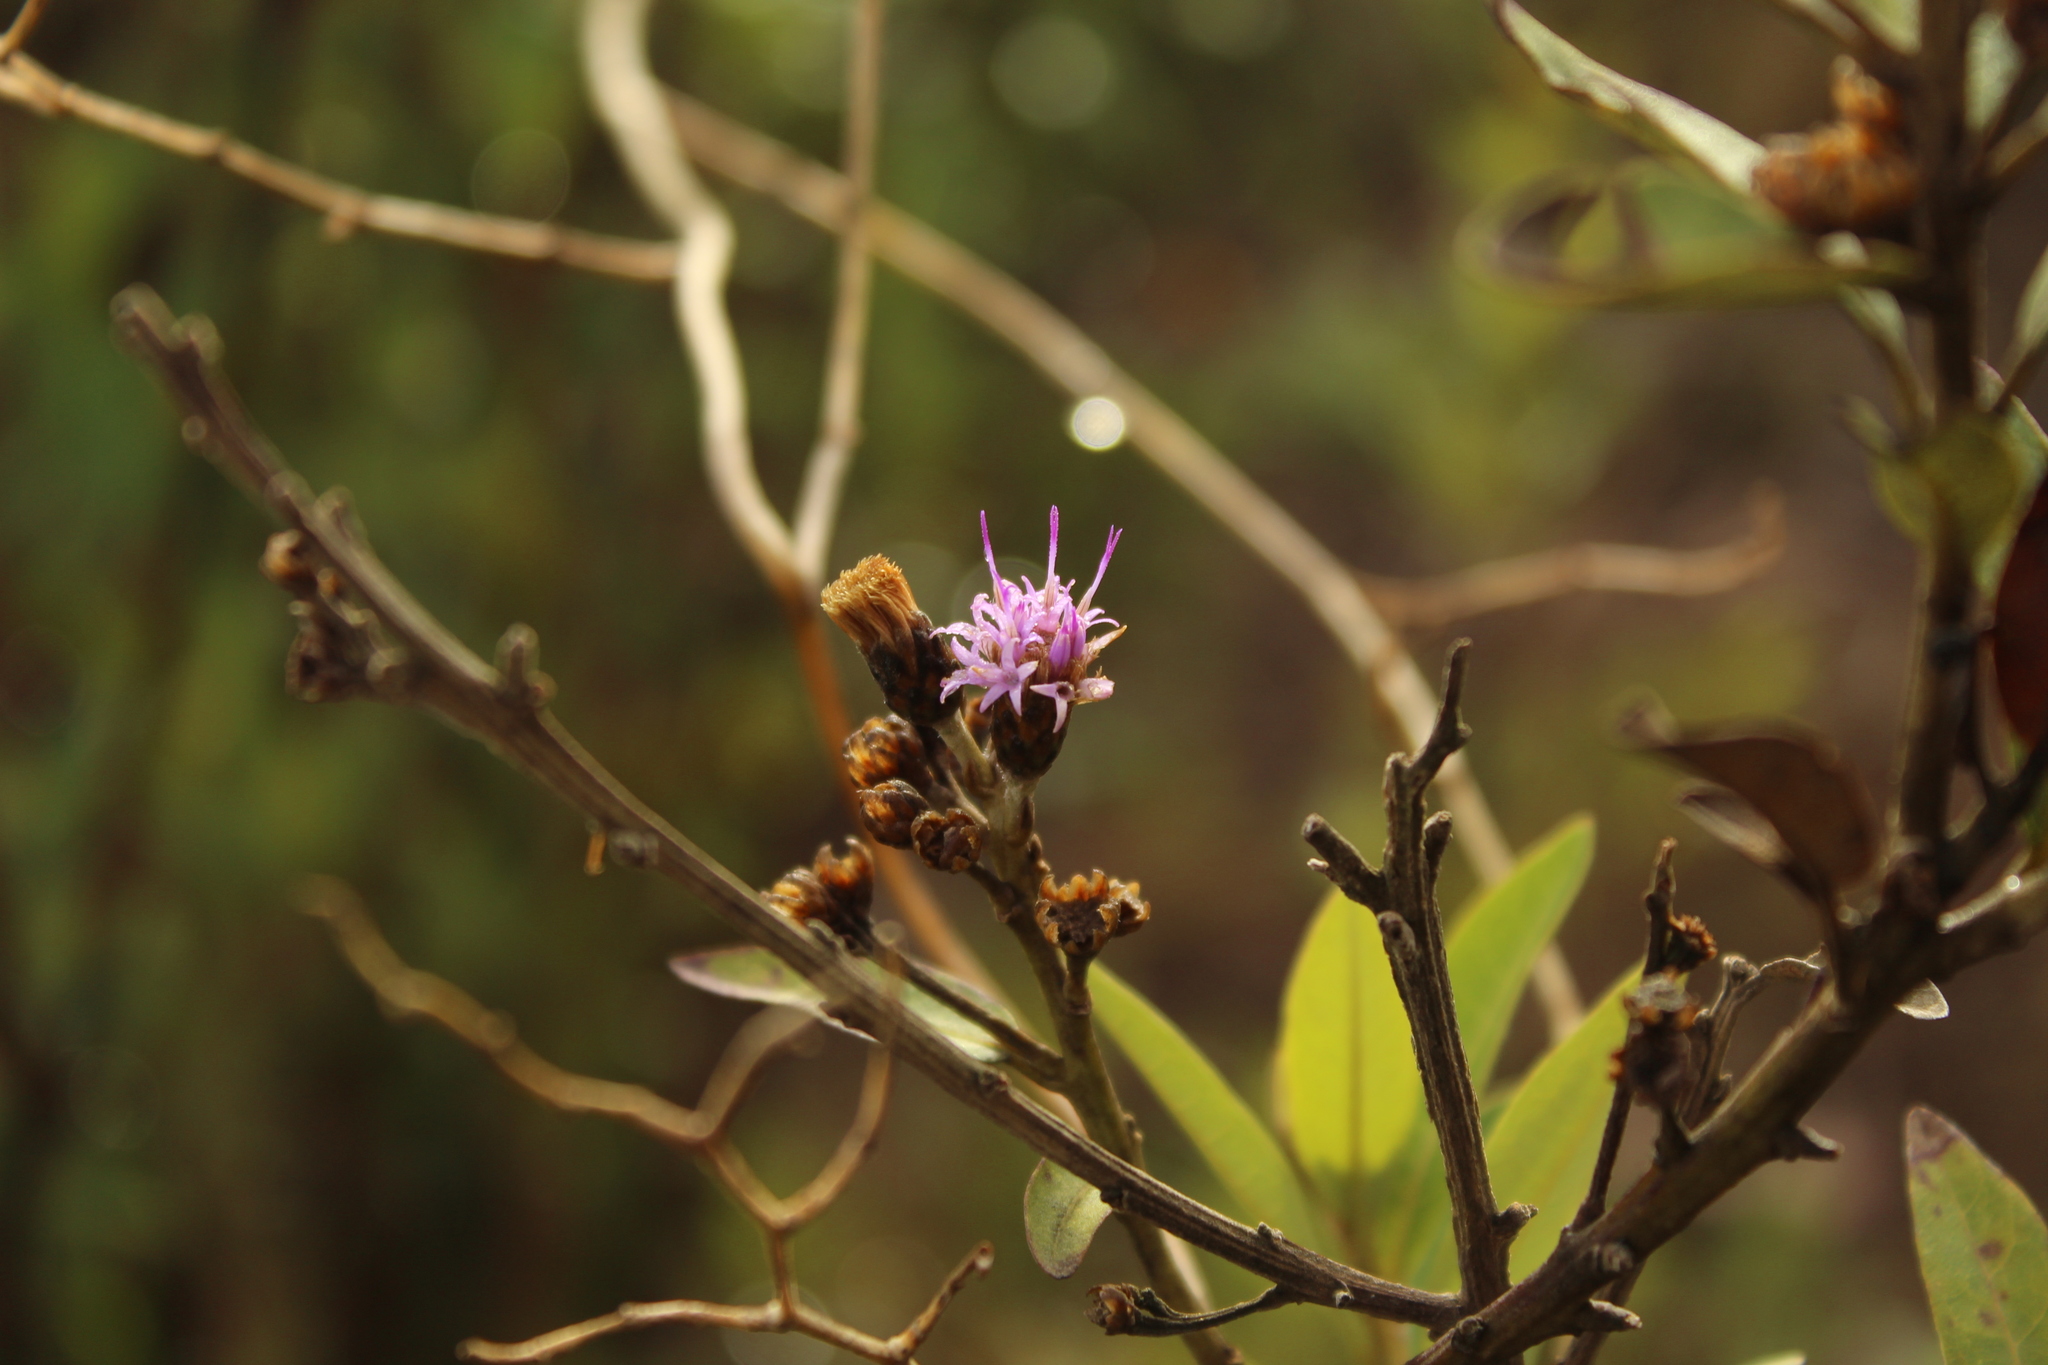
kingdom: Plantae
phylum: Tracheophyta
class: Magnoliopsida
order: Asterales
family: Asteraceae
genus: Lepidaploa
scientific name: Lepidaploa karstenii
